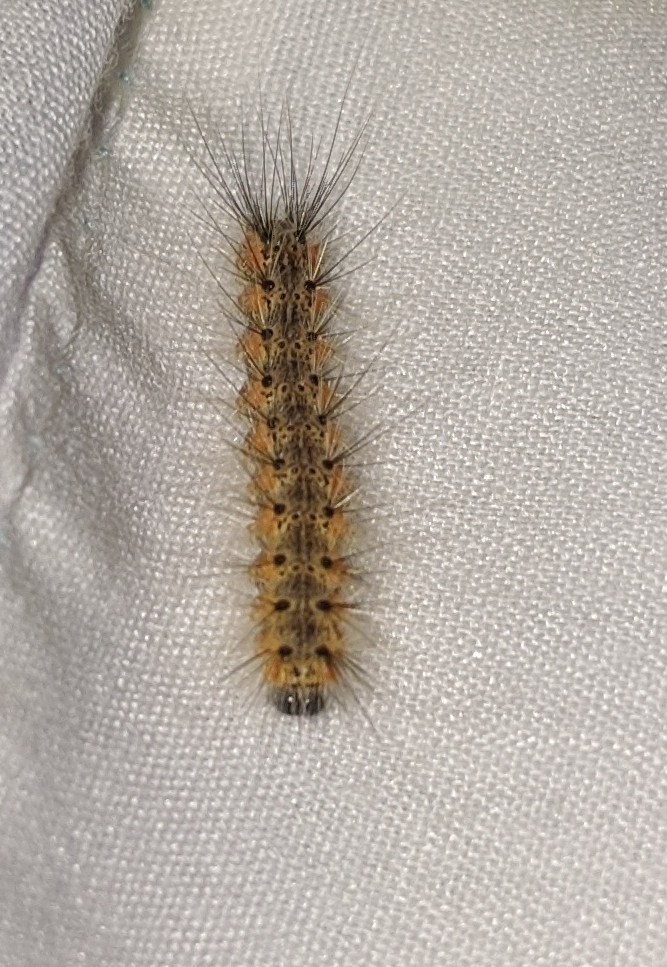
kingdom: Animalia
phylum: Arthropoda
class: Insecta
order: Lepidoptera
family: Erebidae
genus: Hyphantria
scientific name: Hyphantria cunea
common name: American white moth
